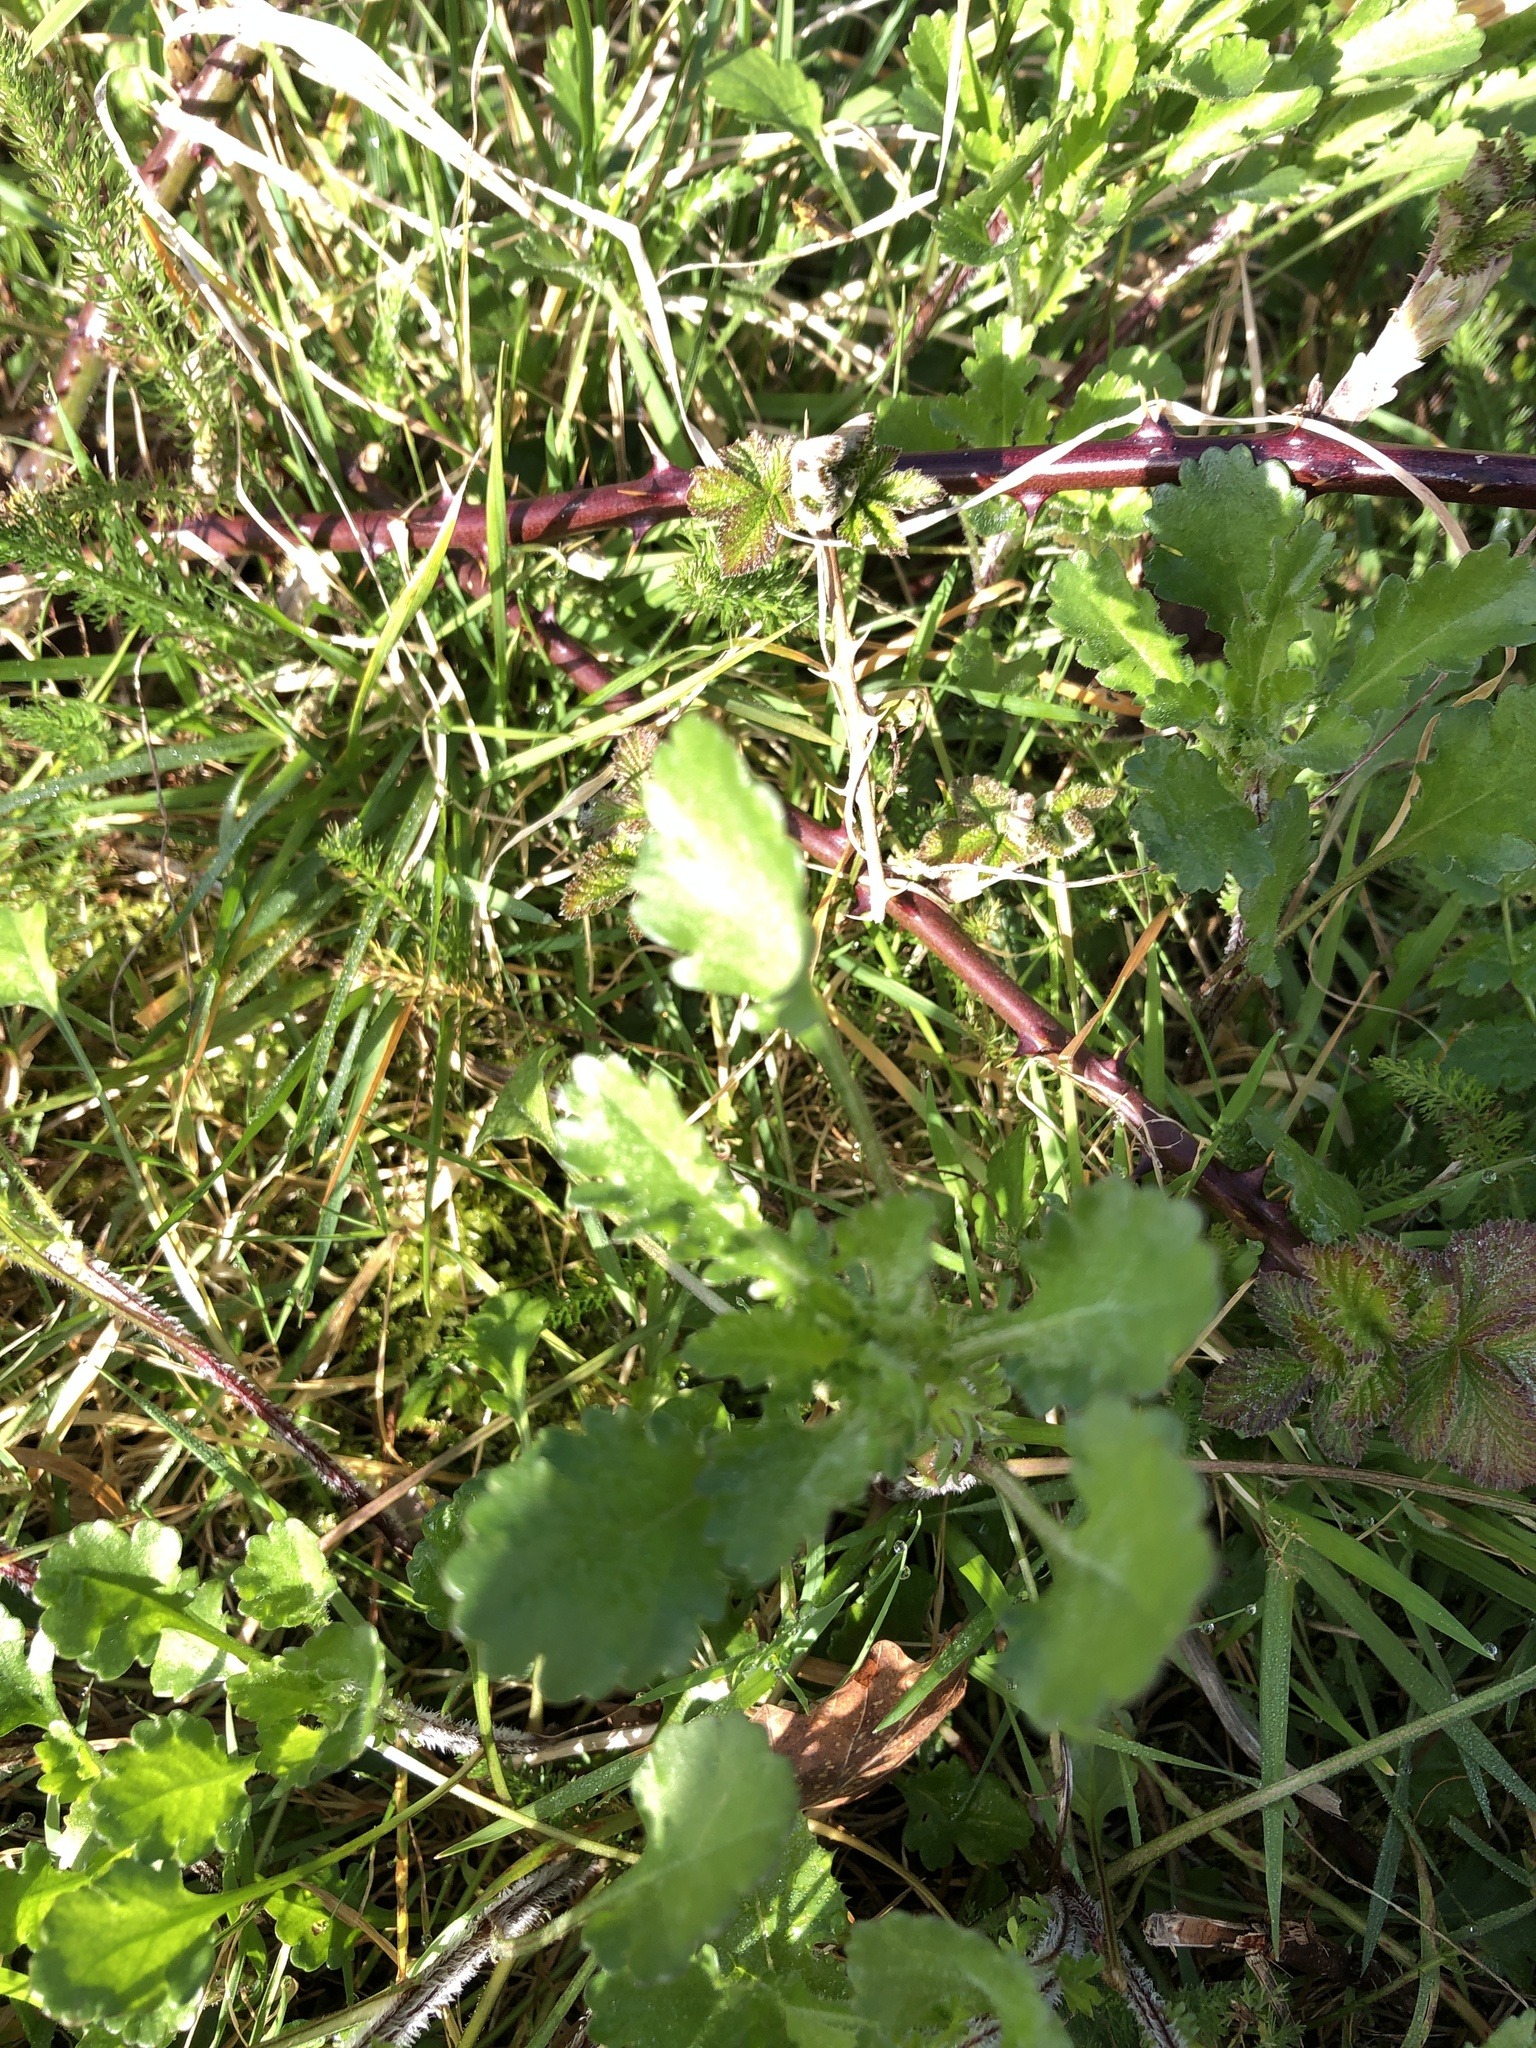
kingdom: Plantae
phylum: Tracheophyta
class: Magnoliopsida
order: Asterales
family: Asteraceae
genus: Leucanthemum
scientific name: Leucanthemum vulgare
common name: Oxeye daisy
